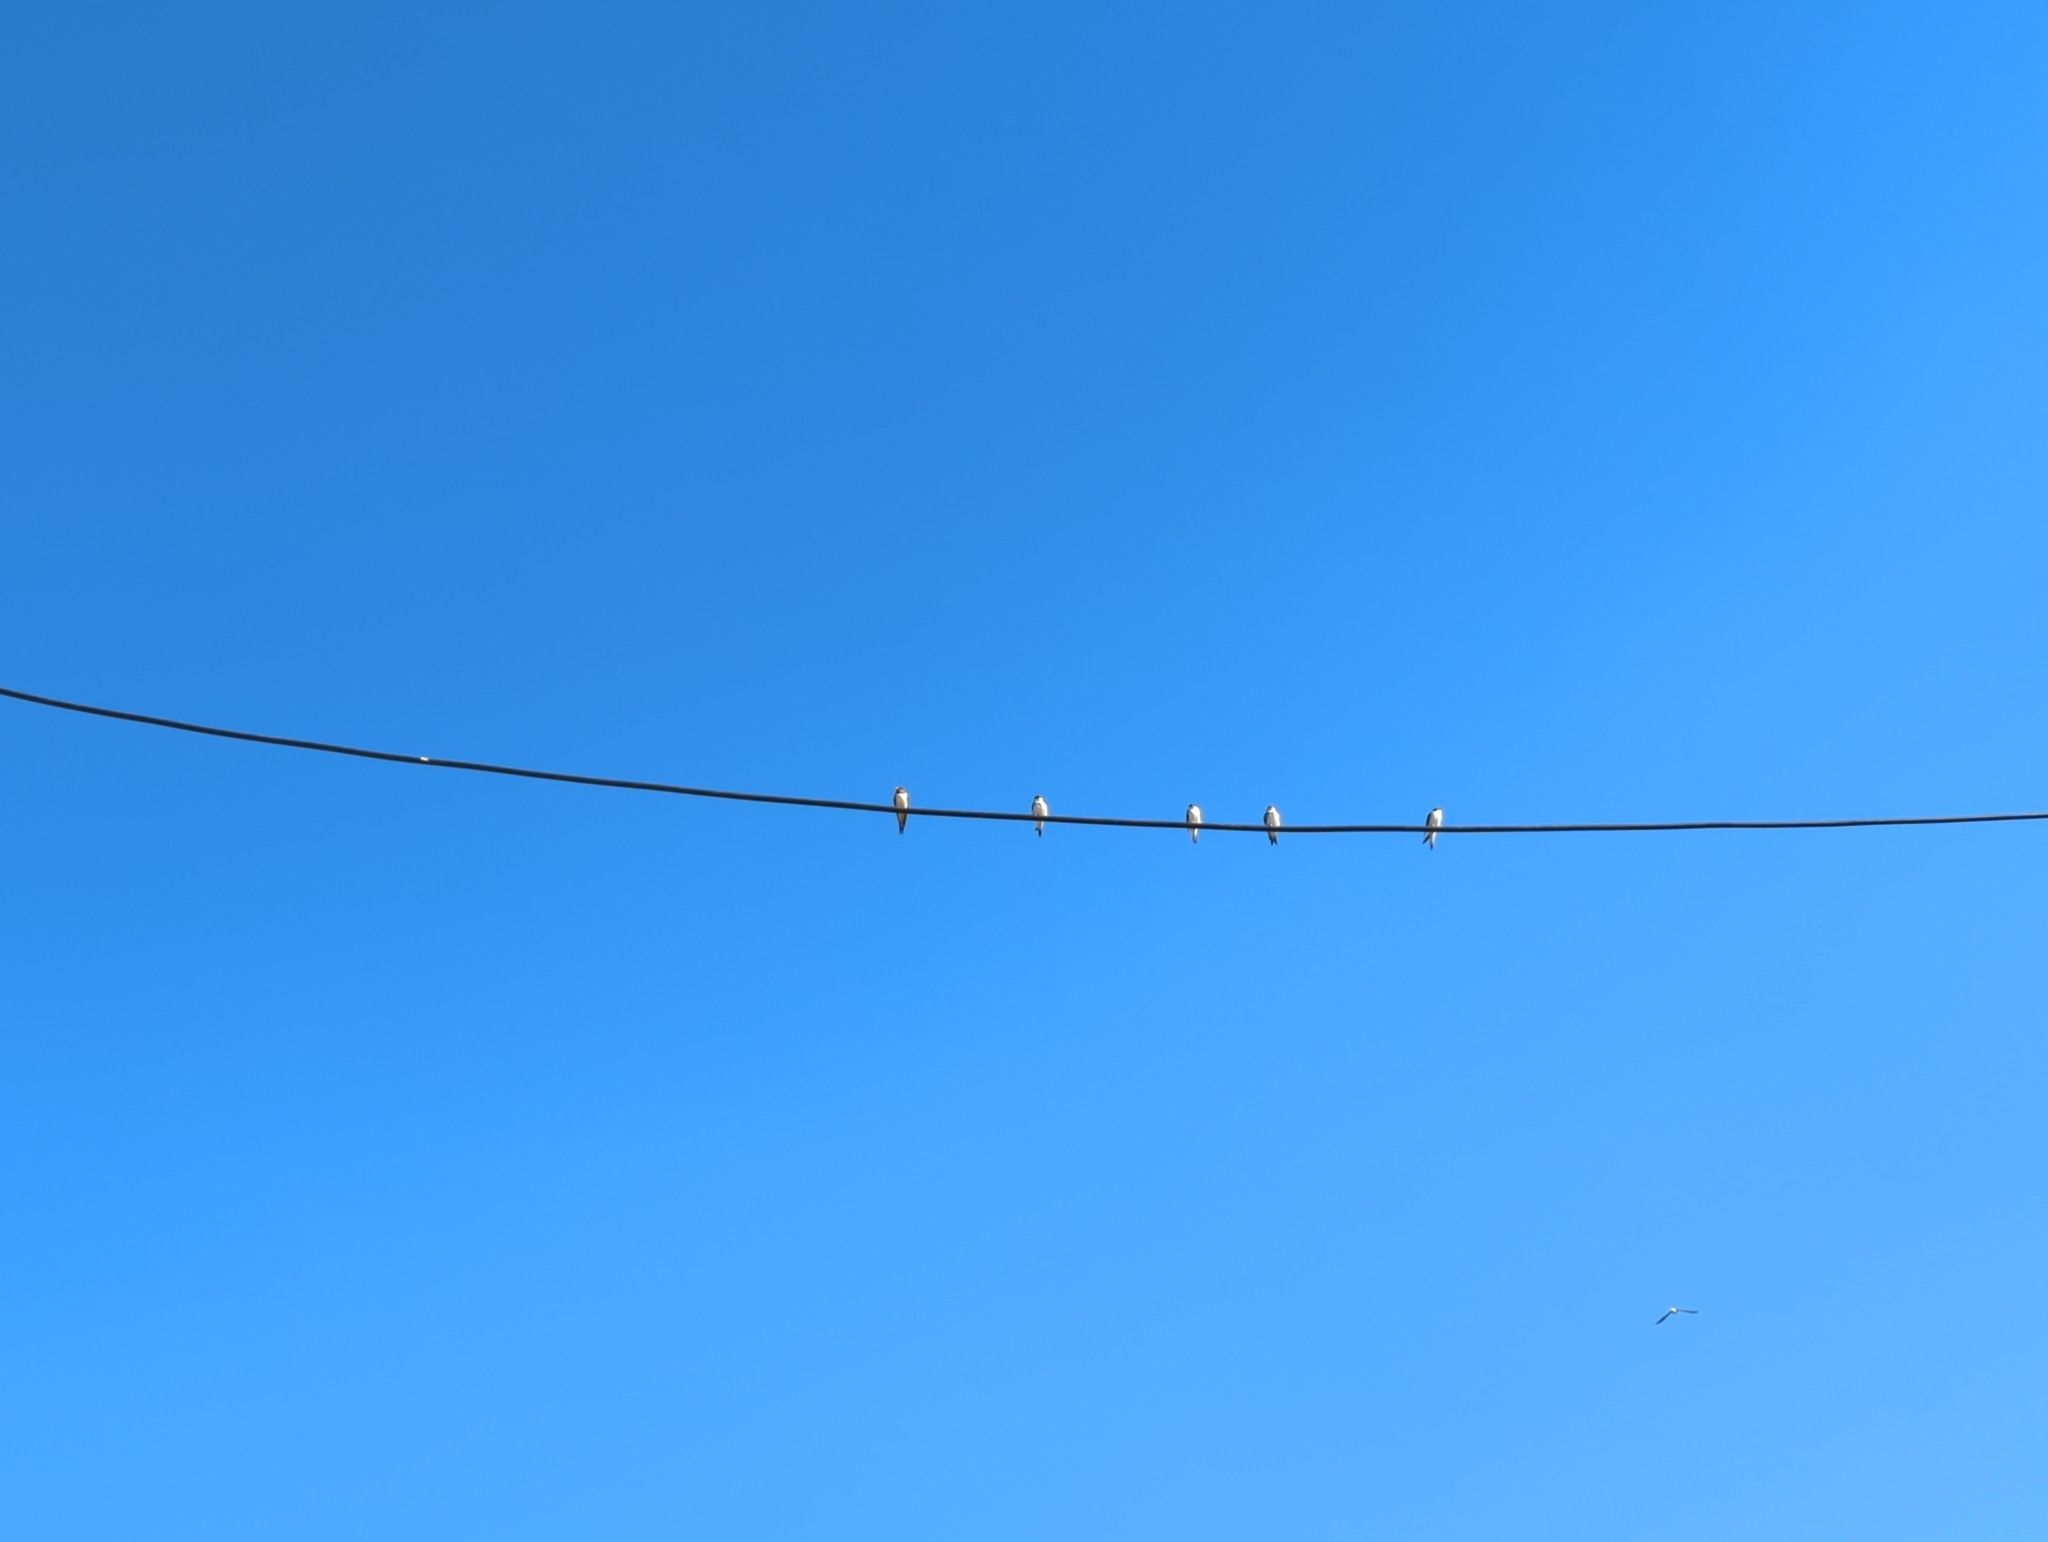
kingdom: Animalia
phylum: Chordata
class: Aves
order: Passeriformes
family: Hirundinidae
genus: Hirundo
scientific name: Hirundo rustica
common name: Barn swallow
